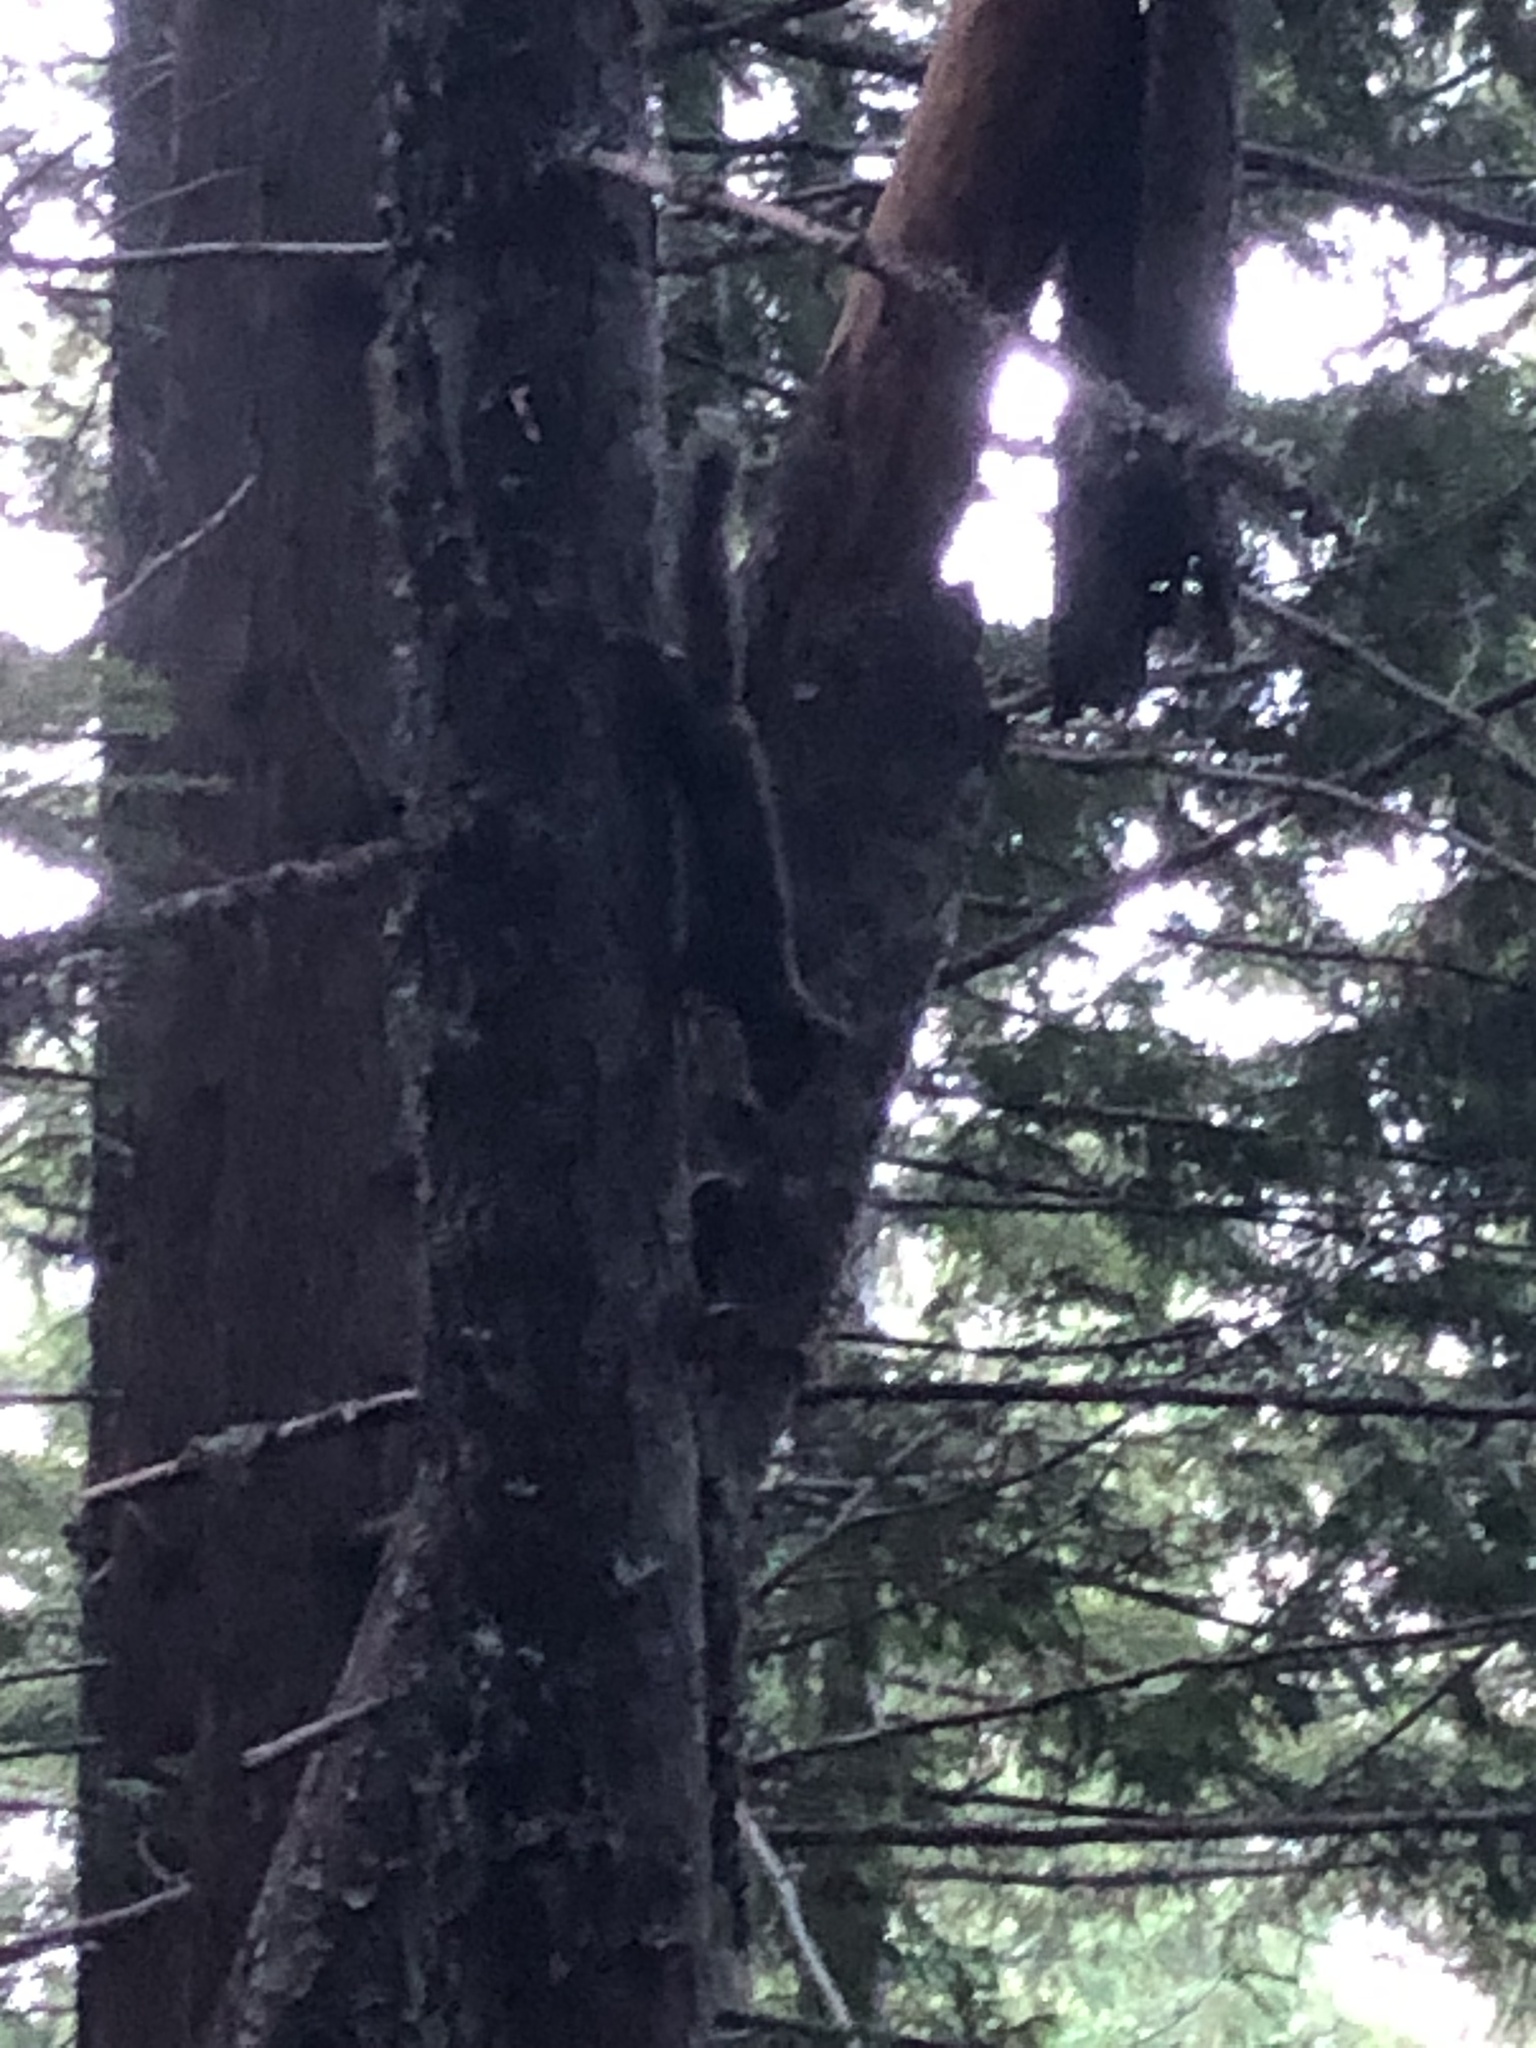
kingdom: Animalia
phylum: Chordata
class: Mammalia
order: Rodentia
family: Sciuridae
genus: Tamiasciurus
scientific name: Tamiasciurus douglasii
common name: Douglas's squirrel
